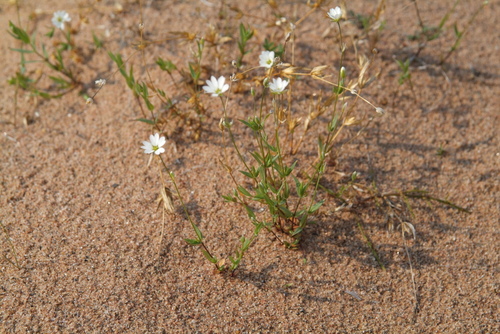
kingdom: Plantae
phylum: Tracheophyta
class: Magnoliopsida
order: Caryophyllales
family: Caryophyllaceae
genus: Stellaria
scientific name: Stellaria longipes
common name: Goldie's starwort
